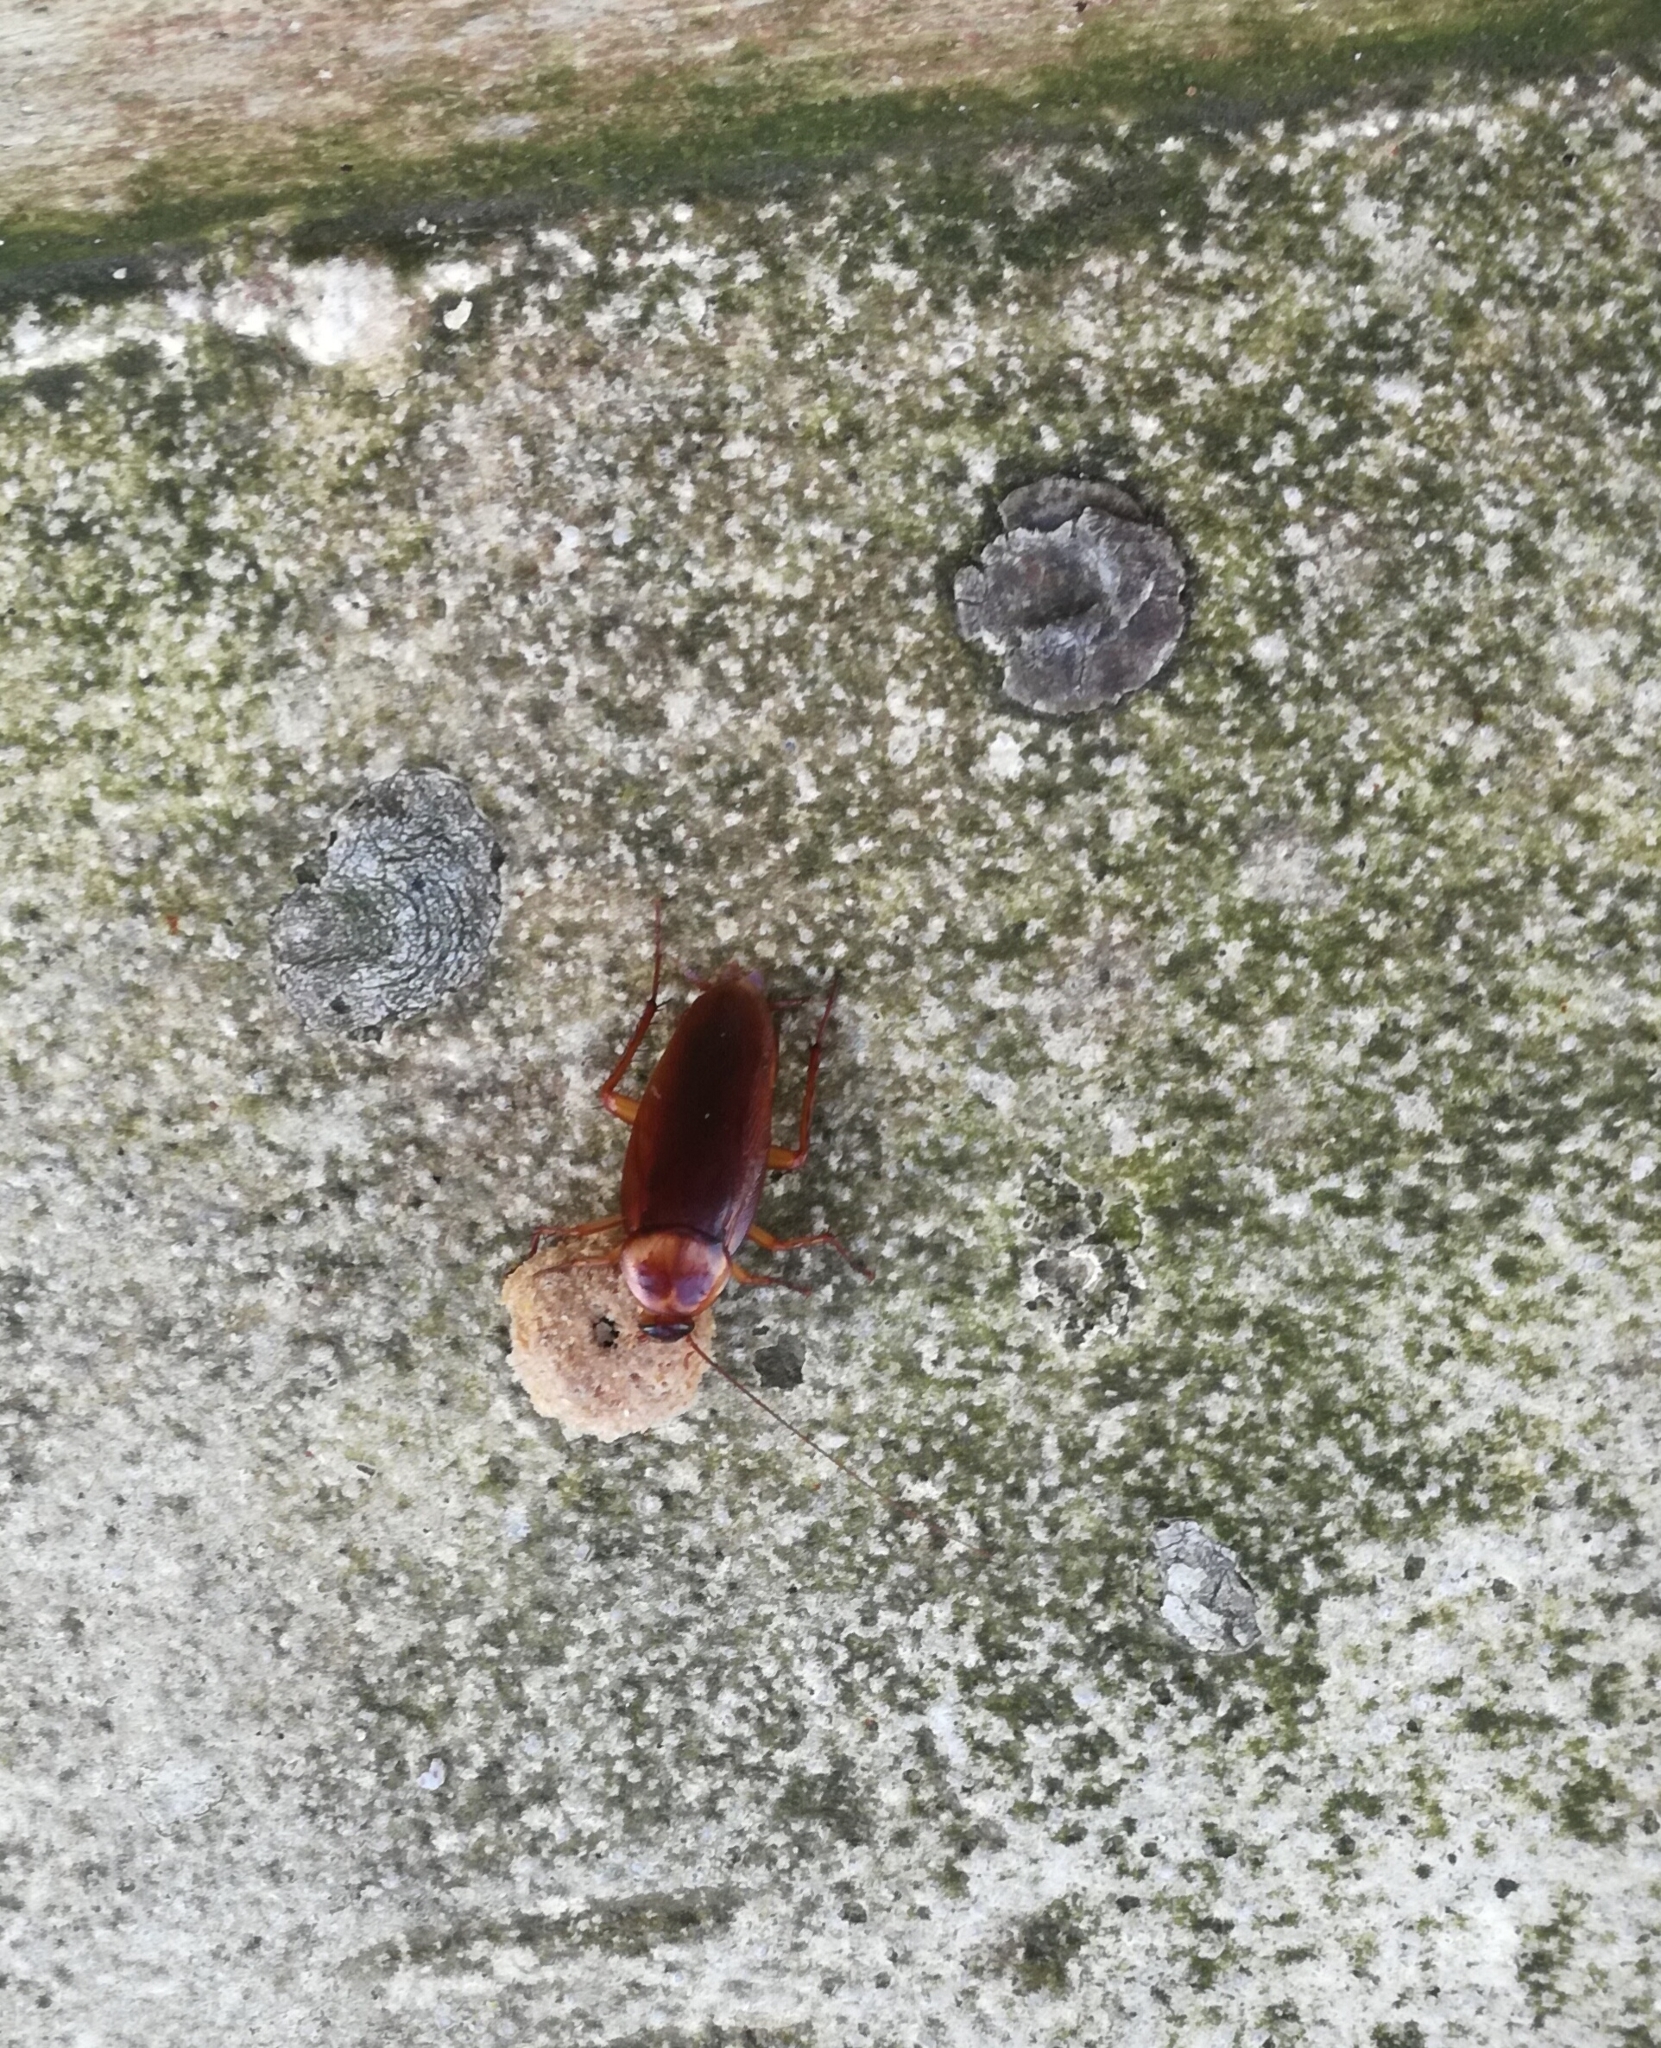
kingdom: Animalia
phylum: Arthropoda
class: Insecta
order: Blattodea
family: Blattidae
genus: Periplaneta
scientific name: Periplaneta americana
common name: American cockroach
